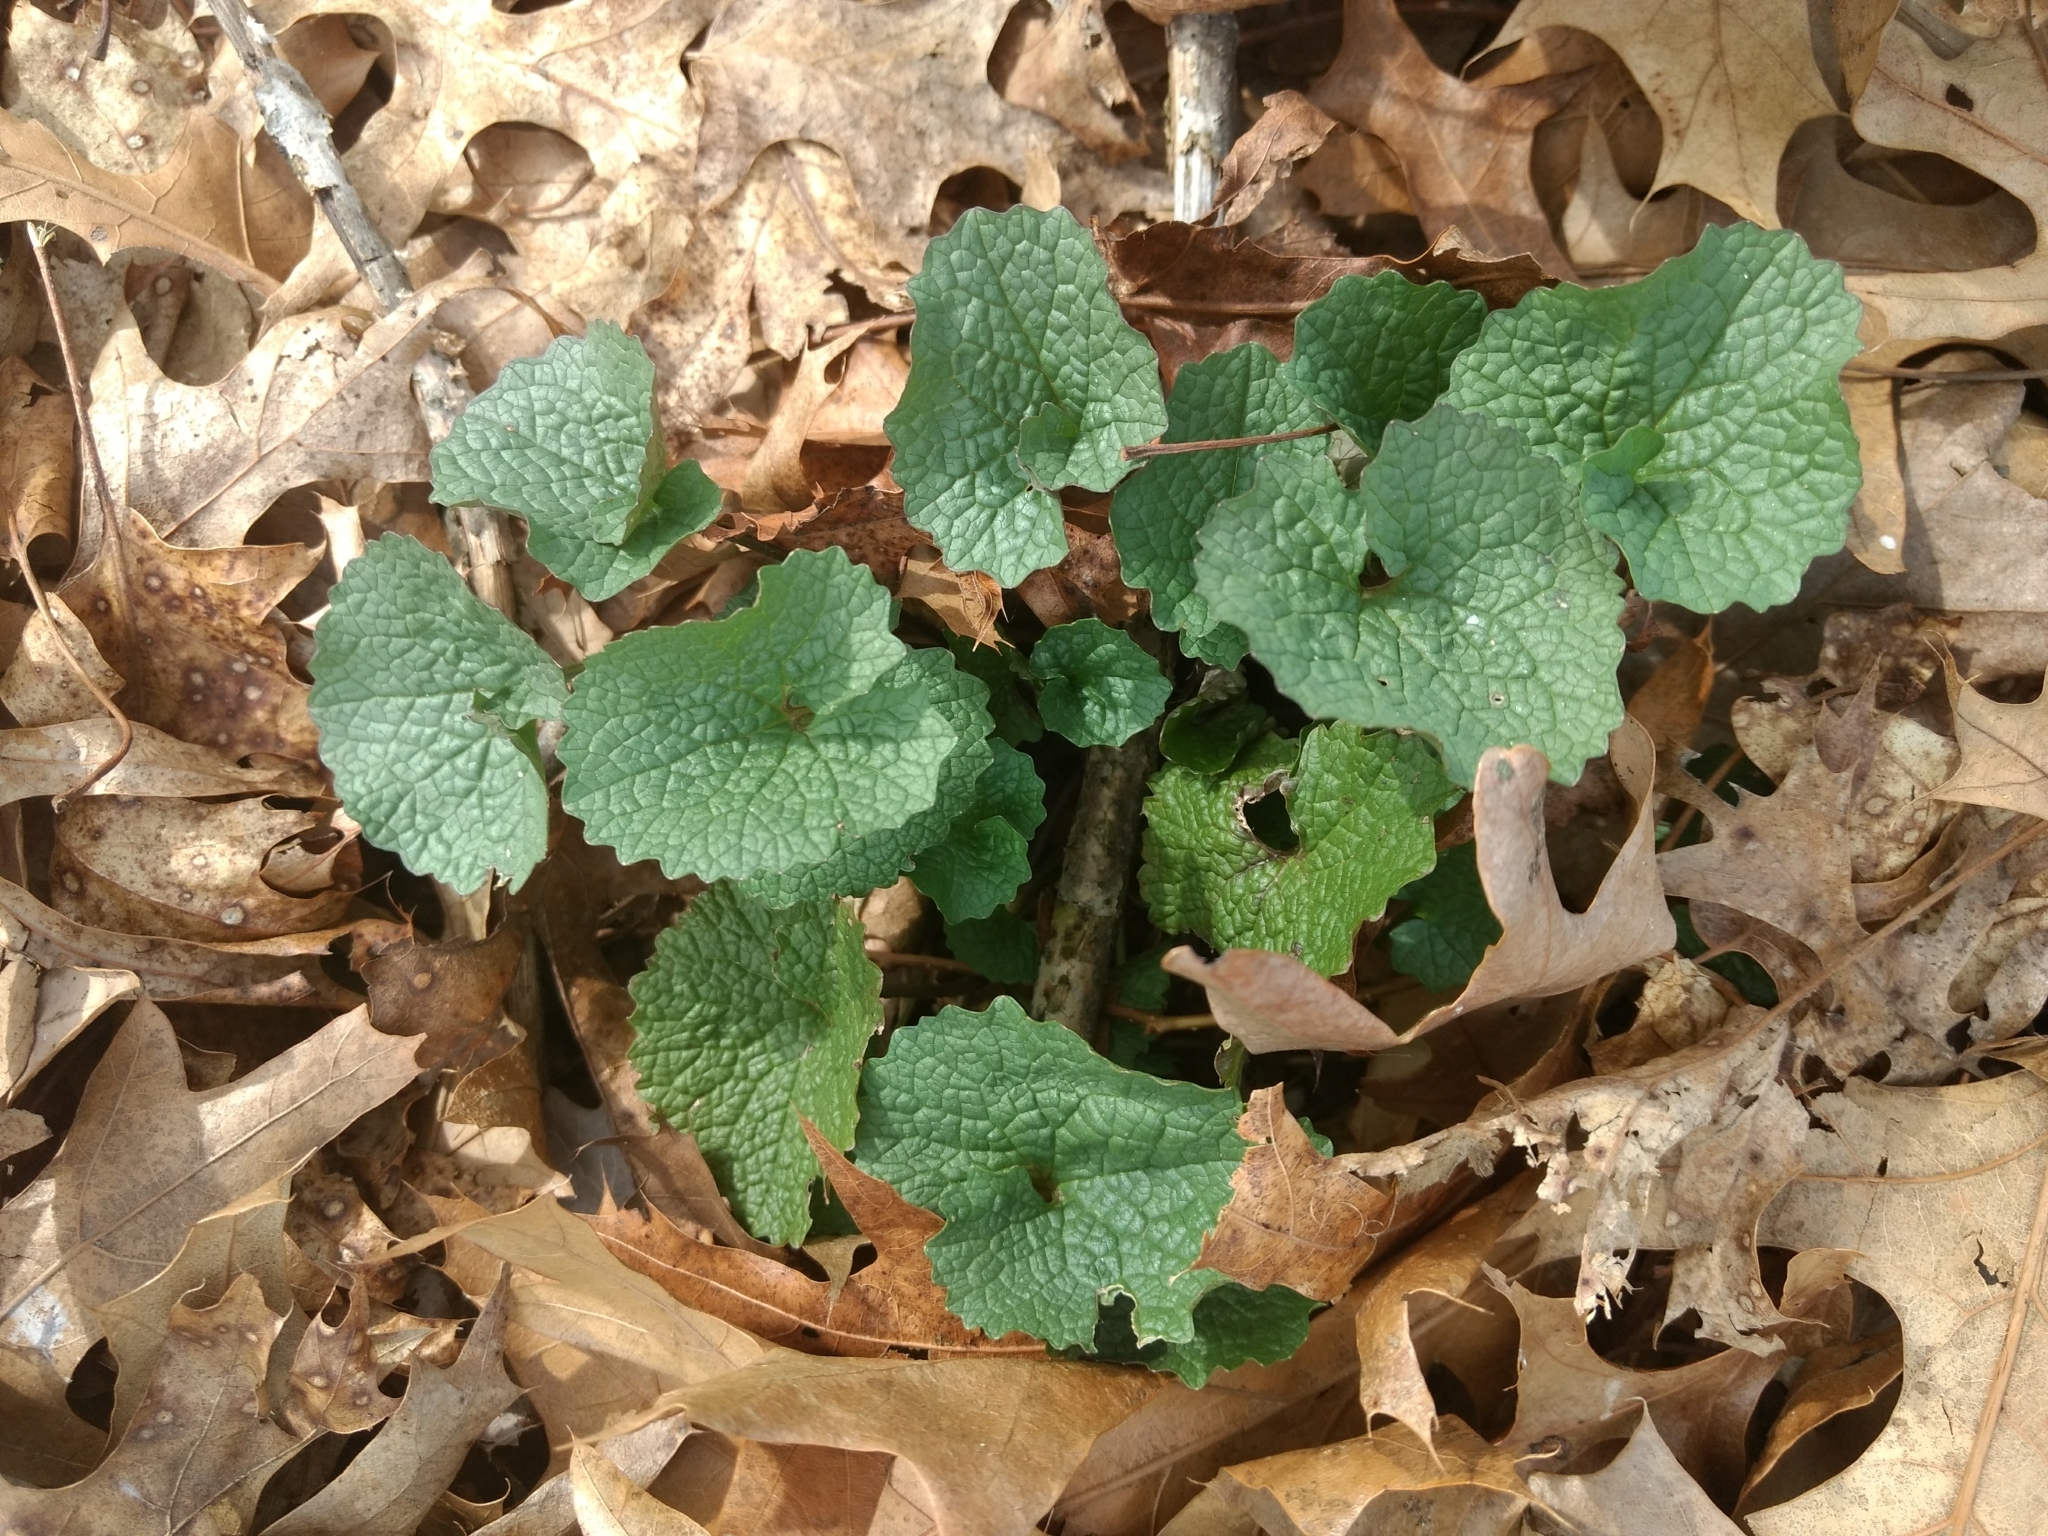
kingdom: Plantae
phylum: Tracheophyta
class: Magnoliopsida
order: Brassicales
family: Brassicaceae
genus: Alliaria
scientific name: Alliaria petiolata
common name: Garlic mustard
